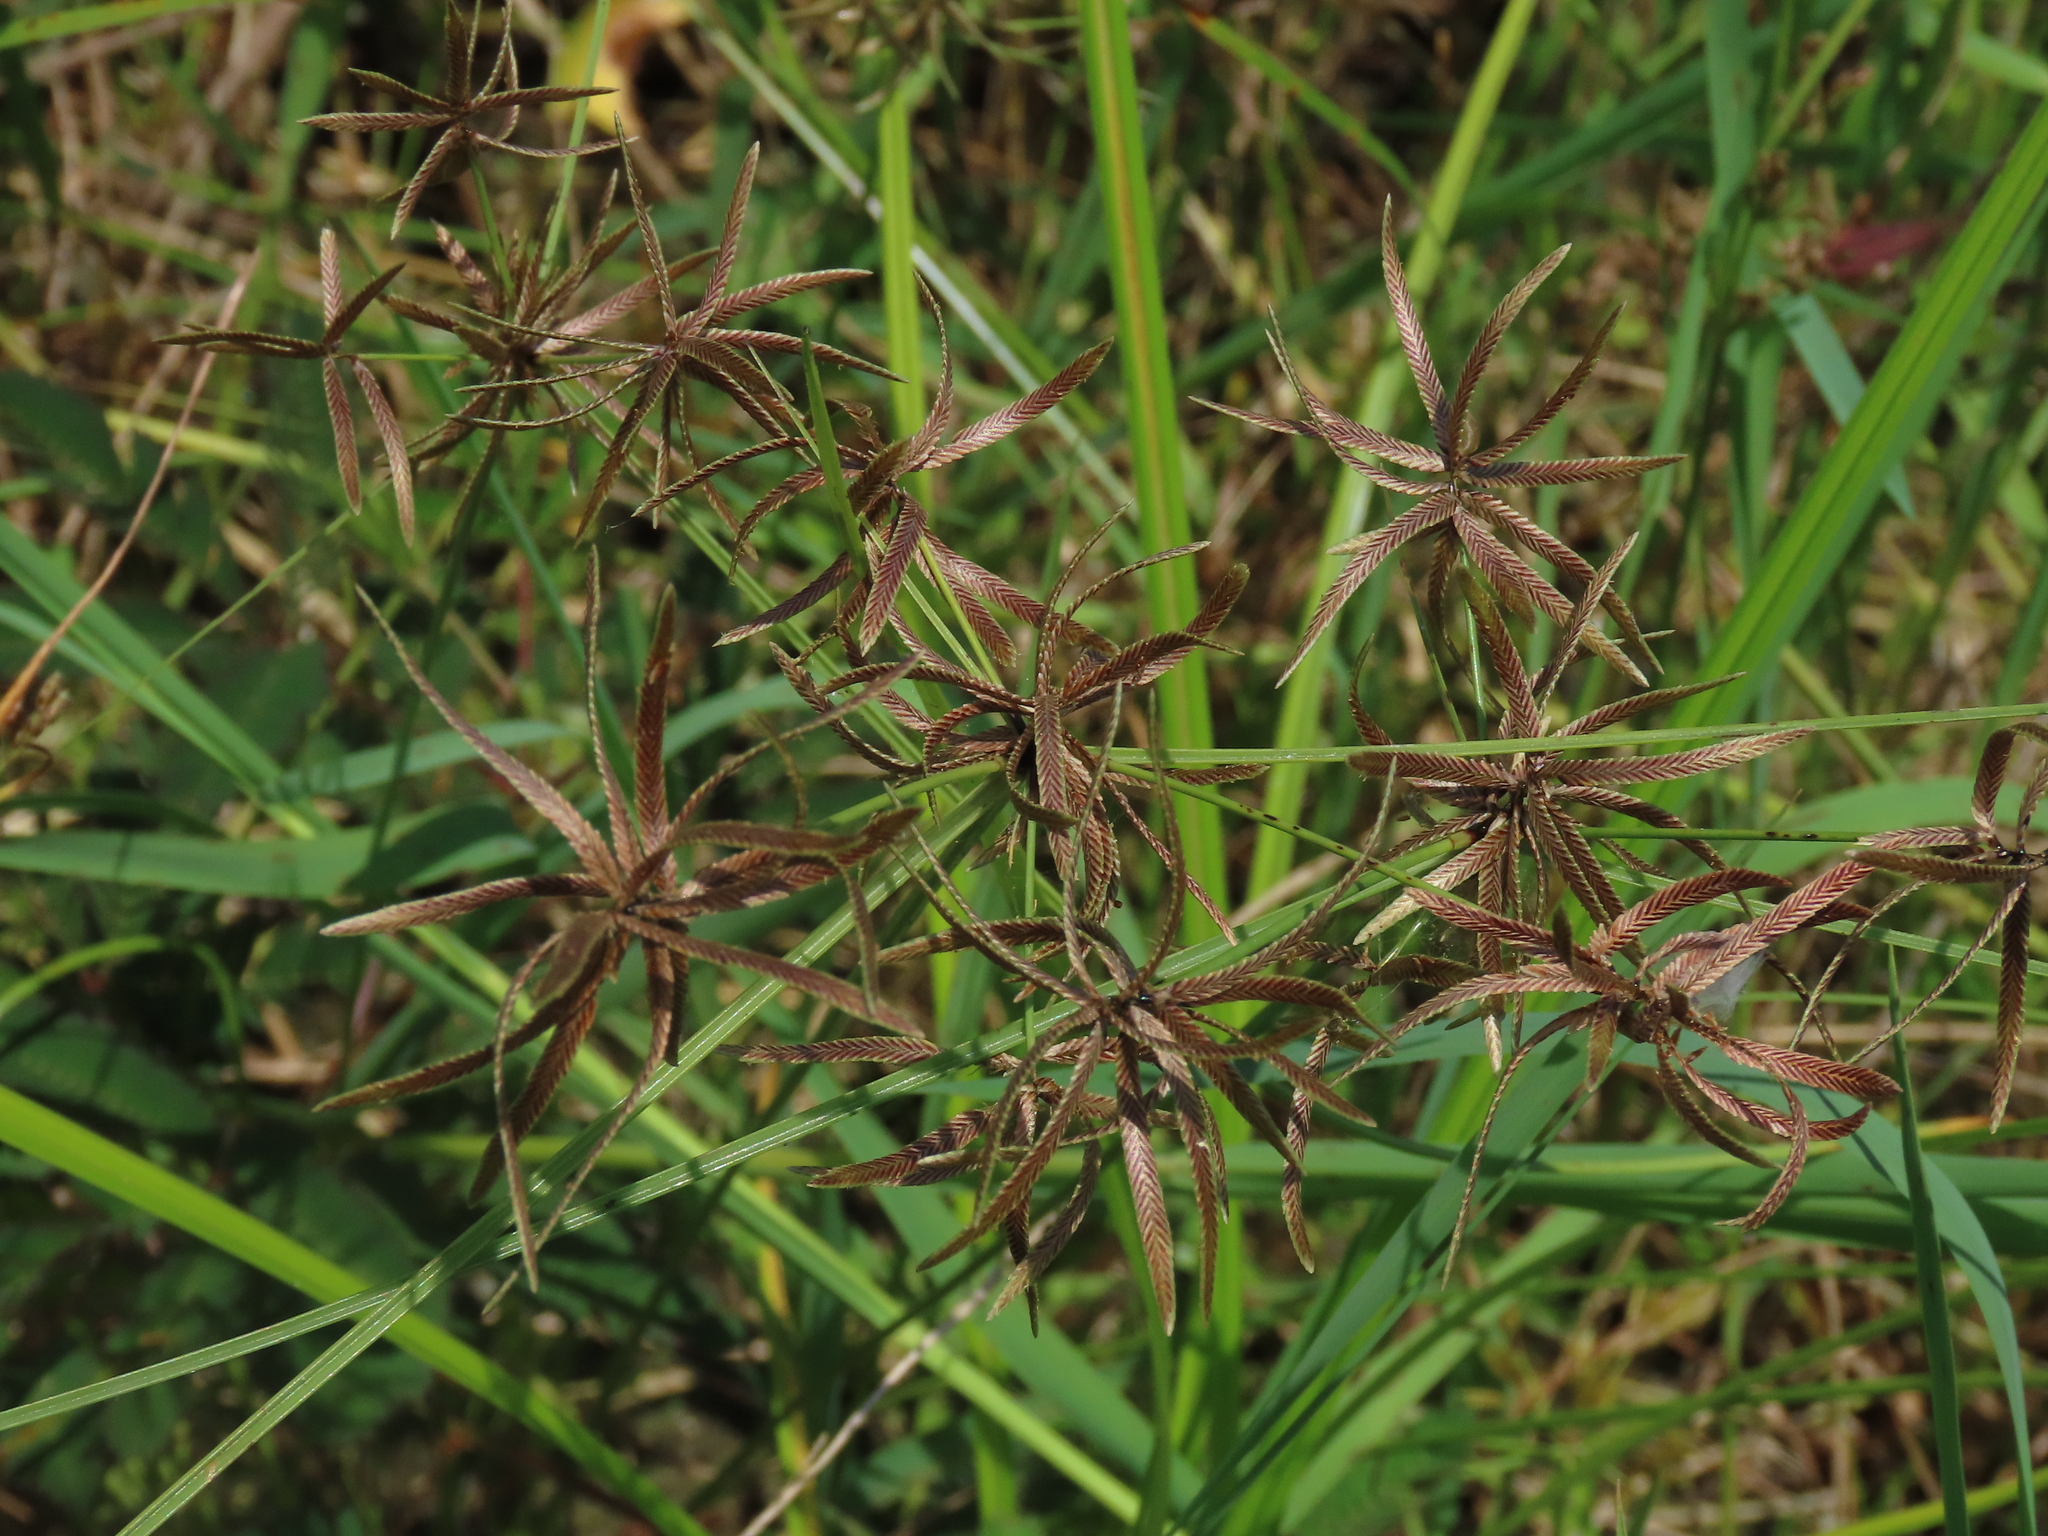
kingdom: Plantae
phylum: Tracheophyta
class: Liliopsida
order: Poales
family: Cyperaceae
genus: Cyperus
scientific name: Cyperus flavidus
